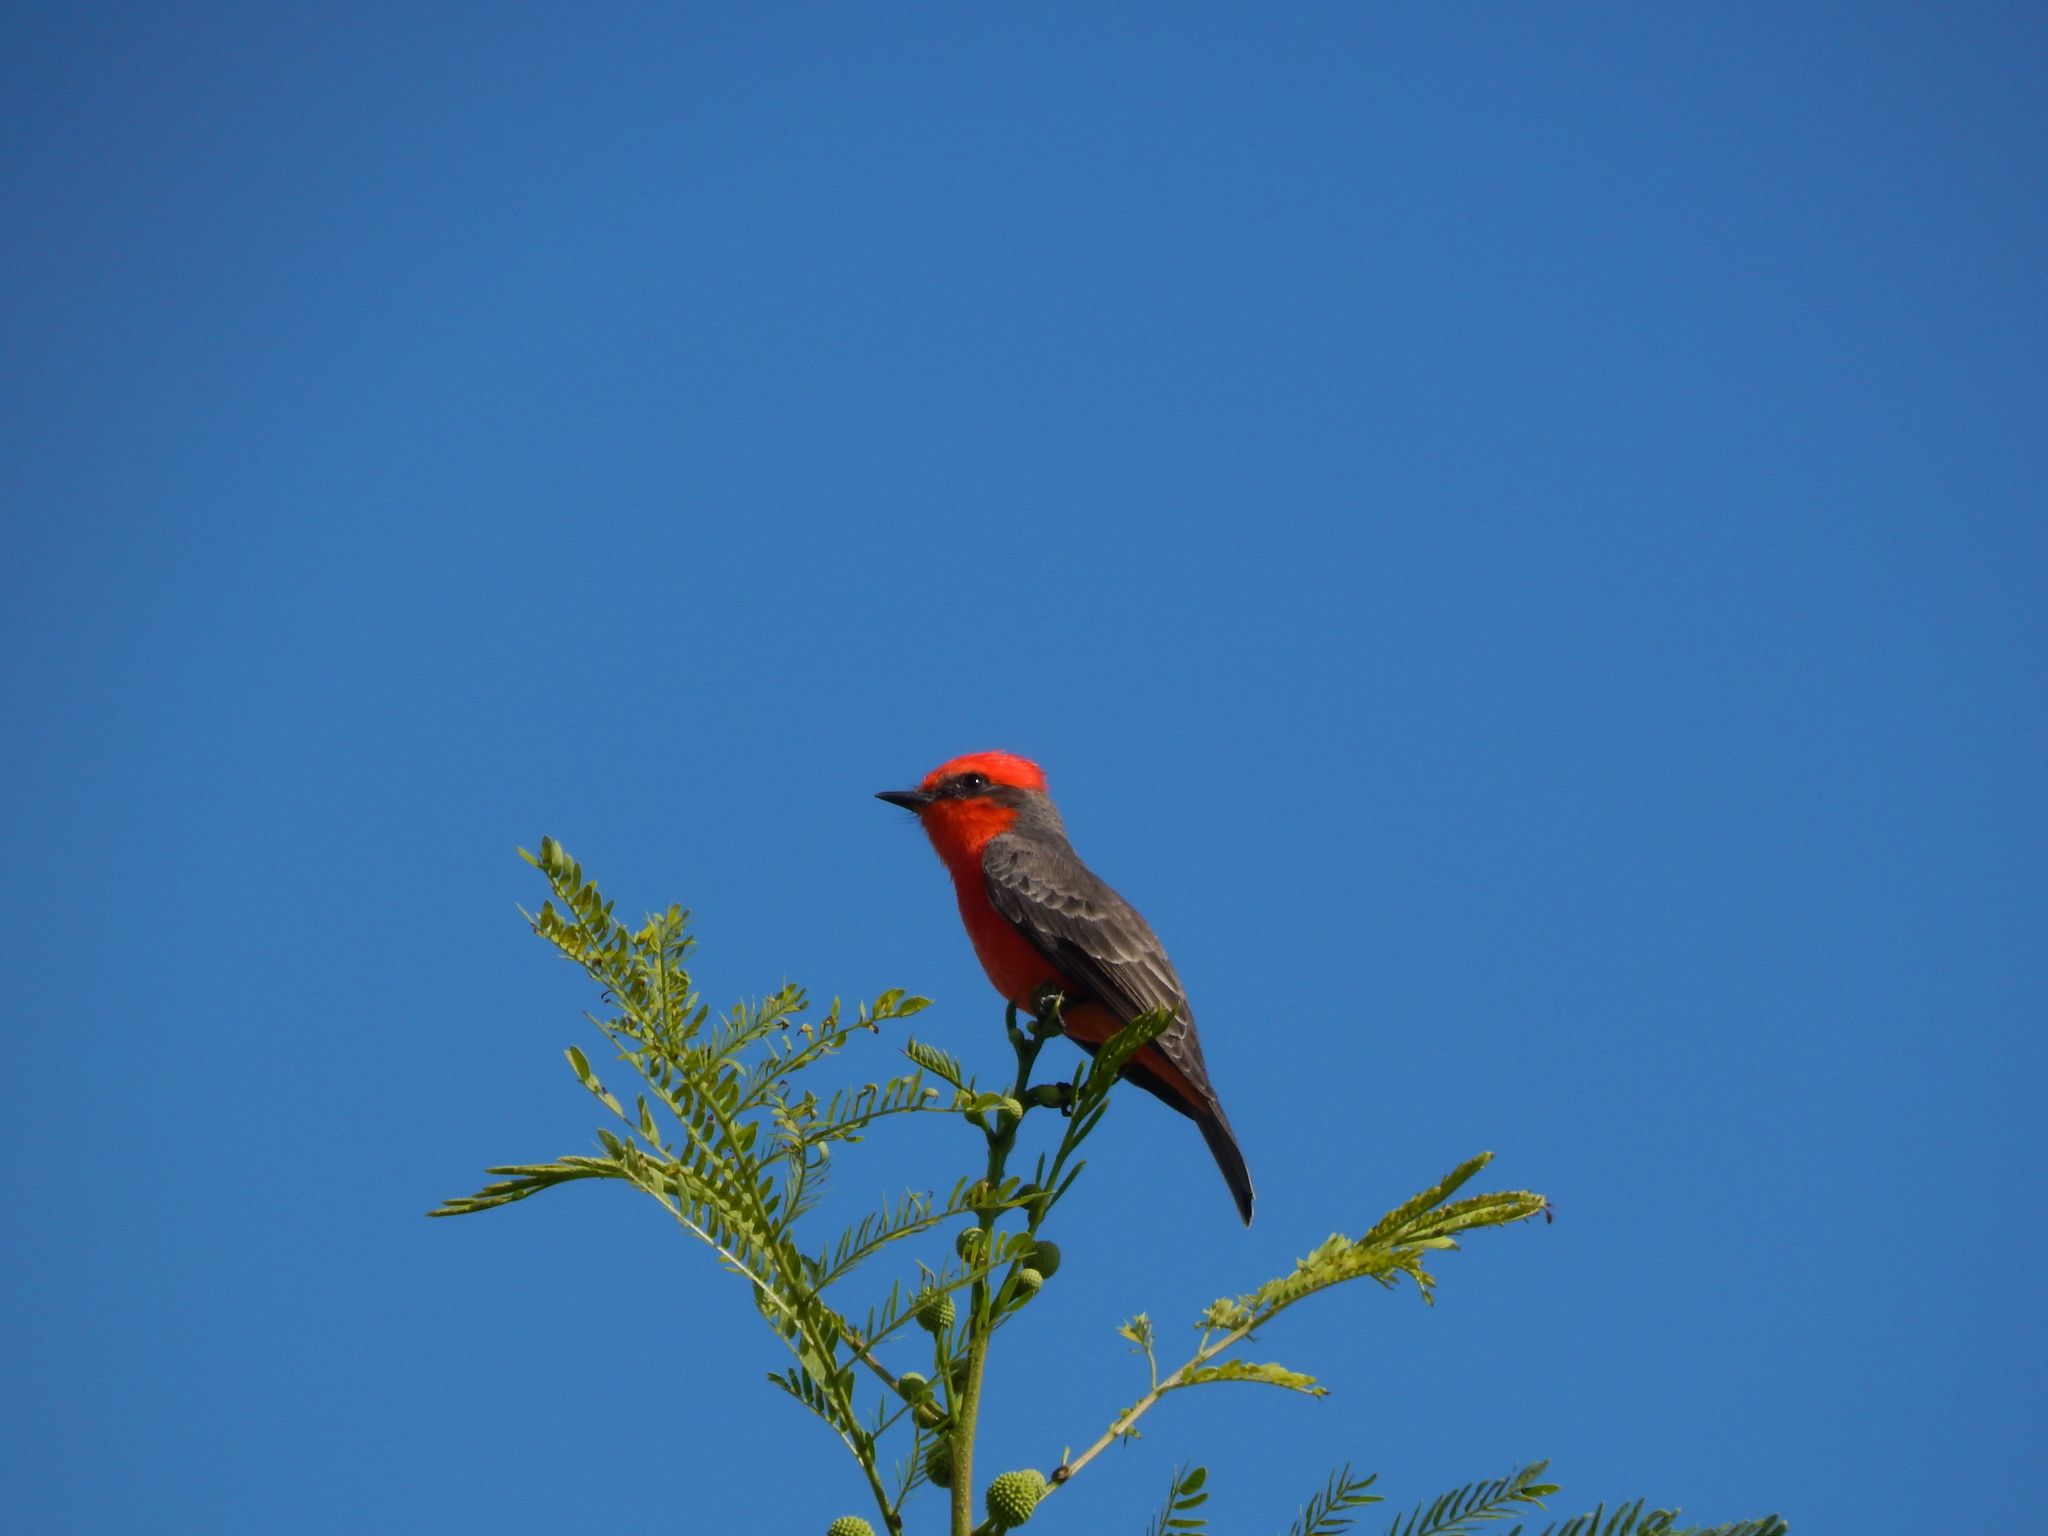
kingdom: Animalia
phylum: Chordata
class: Aves
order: Passeriformes
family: Tyrannidae
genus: Pyrocephalus
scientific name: Pyrocephalus rubinus
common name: Vermilion flycatcher
